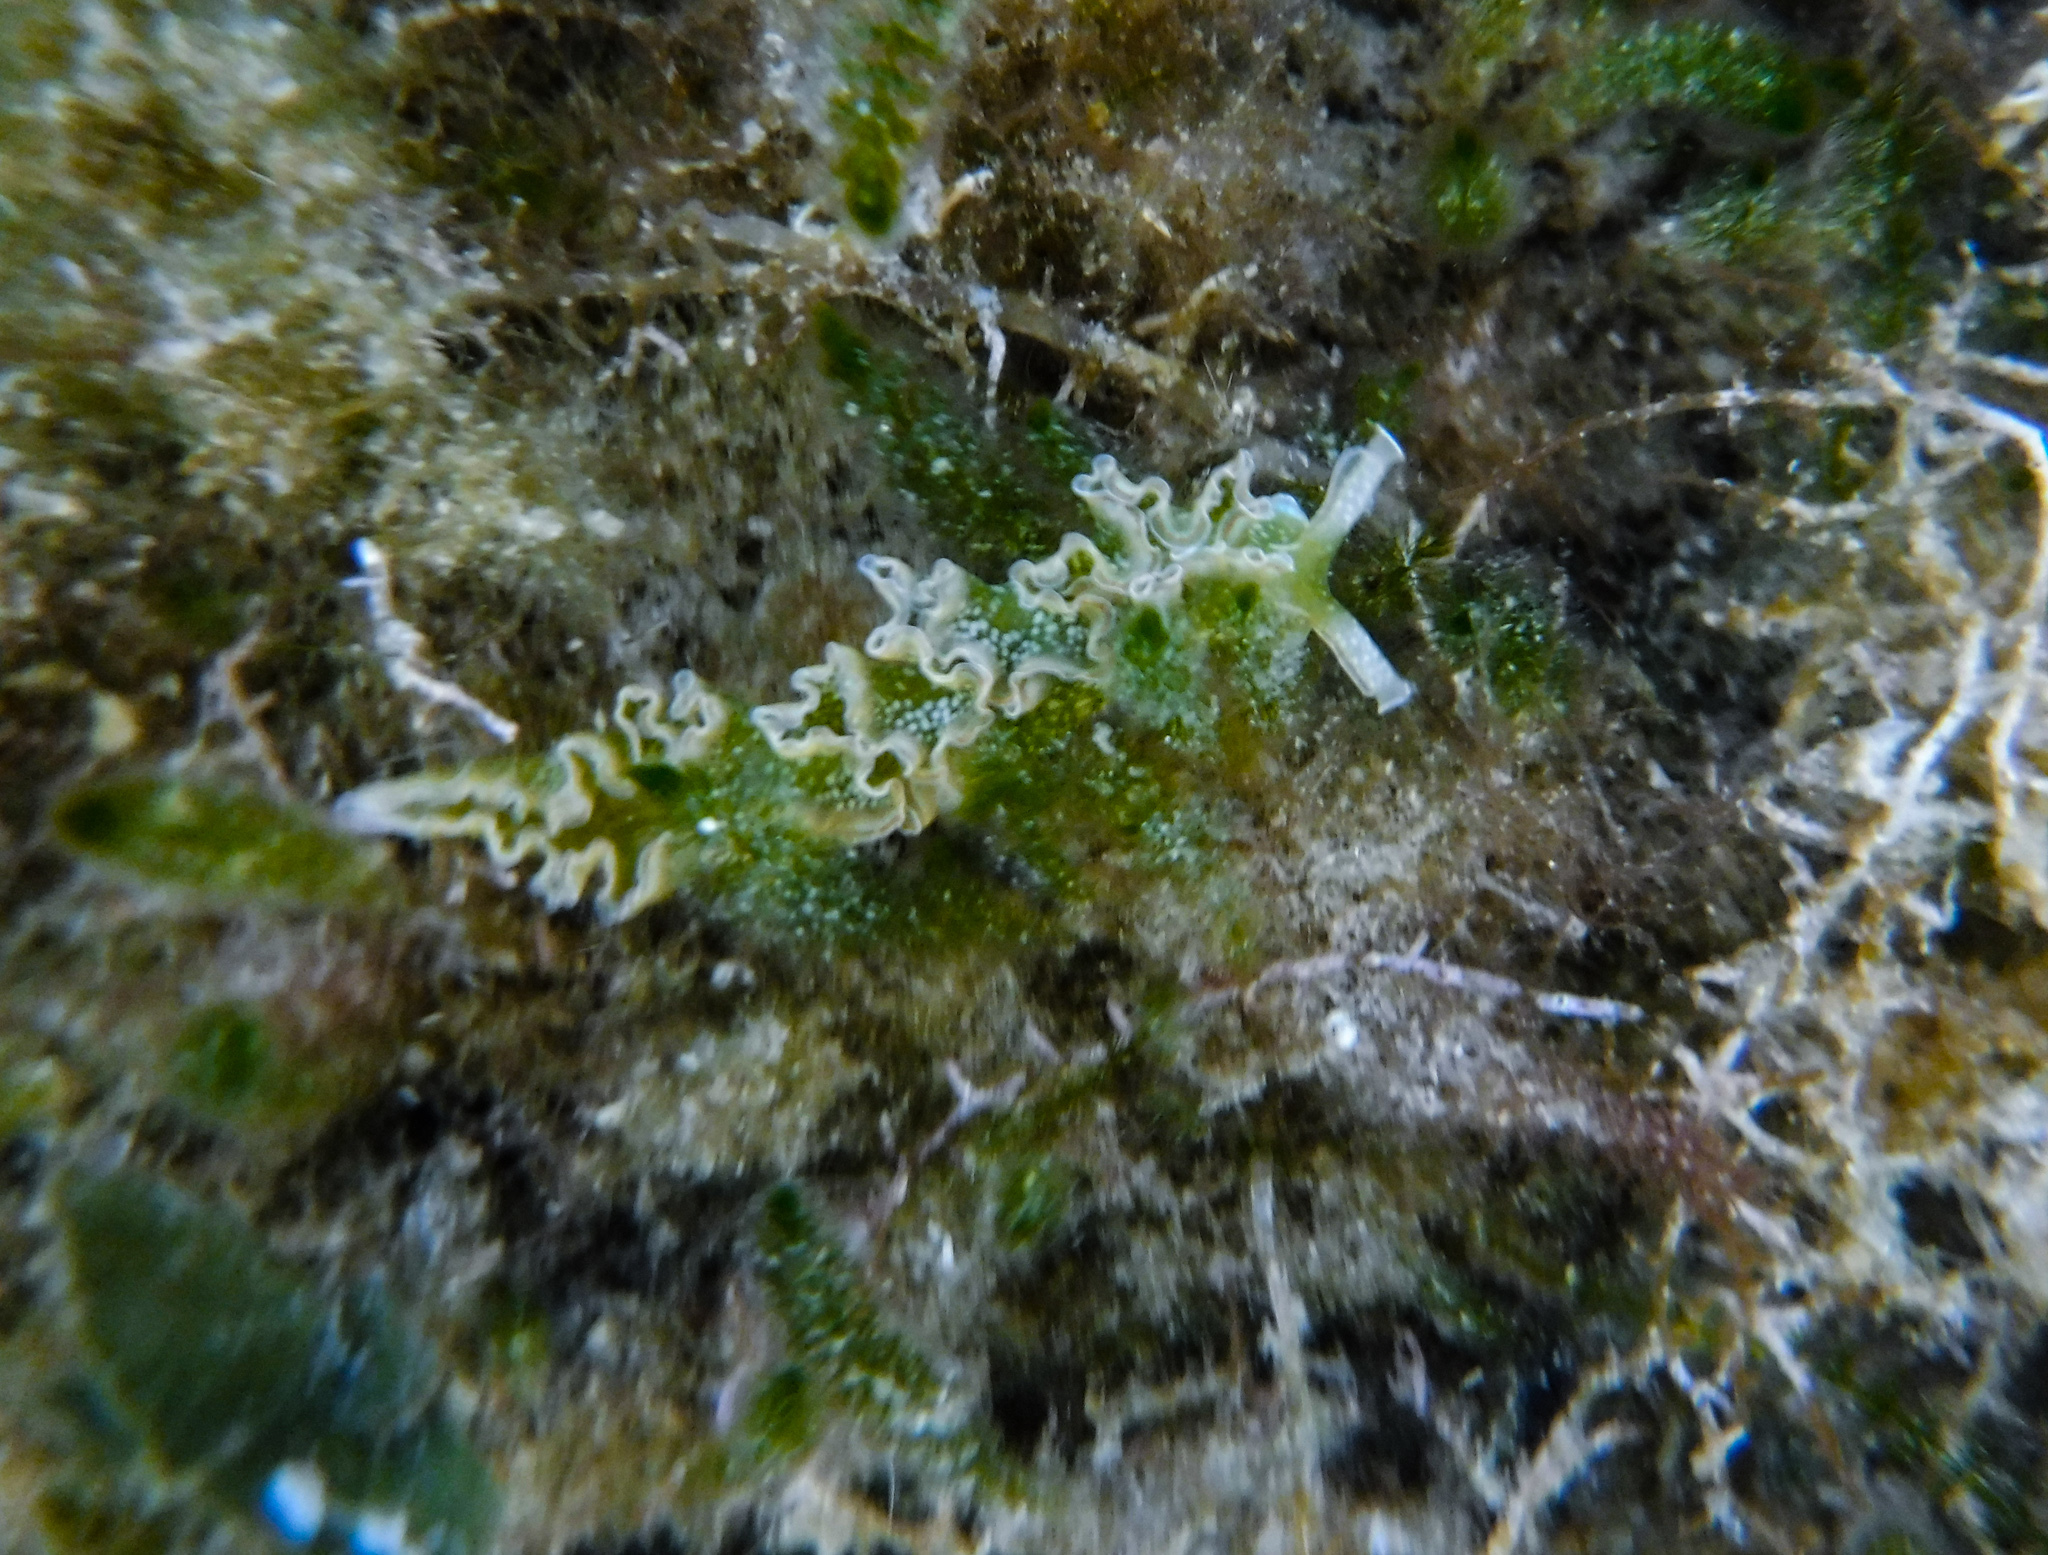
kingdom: Animalia
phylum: Mollusca
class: Gastropoda
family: Plakobranchidae
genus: Elysia
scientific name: Elysia crispata
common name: Lettuce slug
